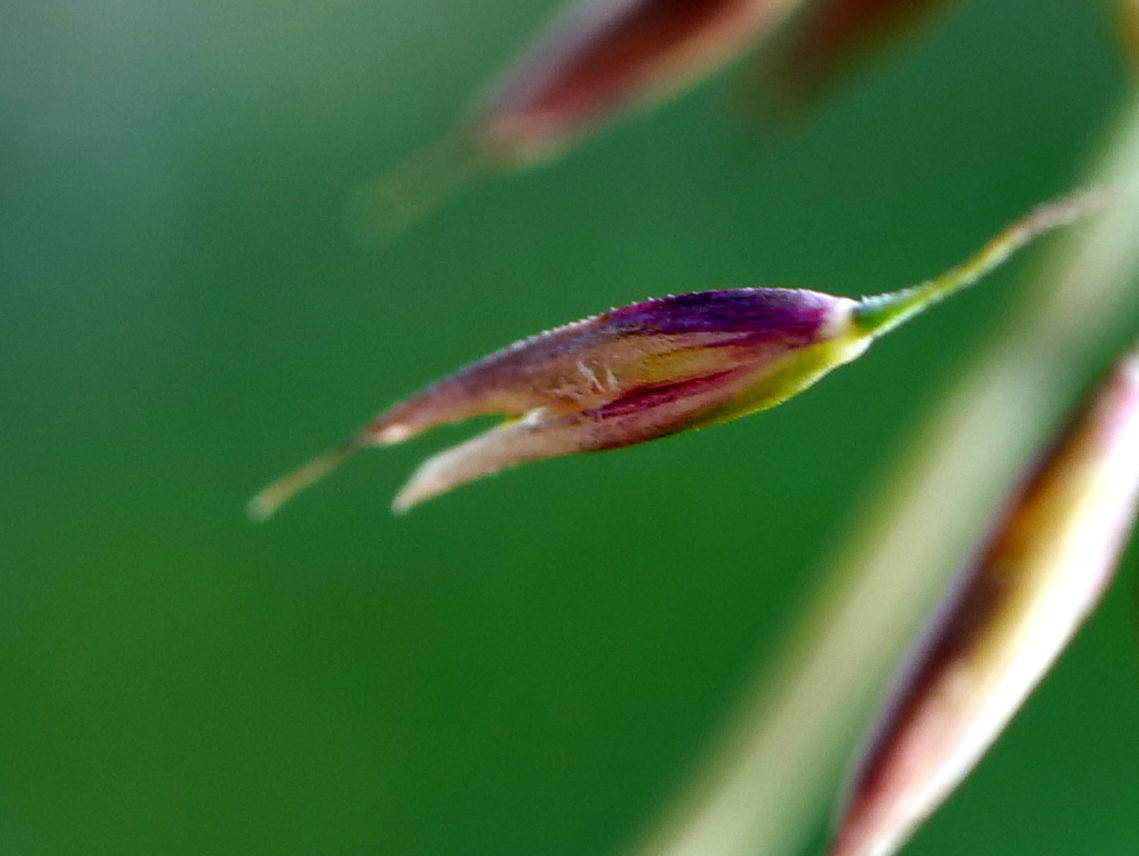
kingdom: Plantae
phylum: Tracheophyta
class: Liliopsida
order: Poales
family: Poaceae
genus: Calamagrostis
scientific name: Calamagrostis varia
